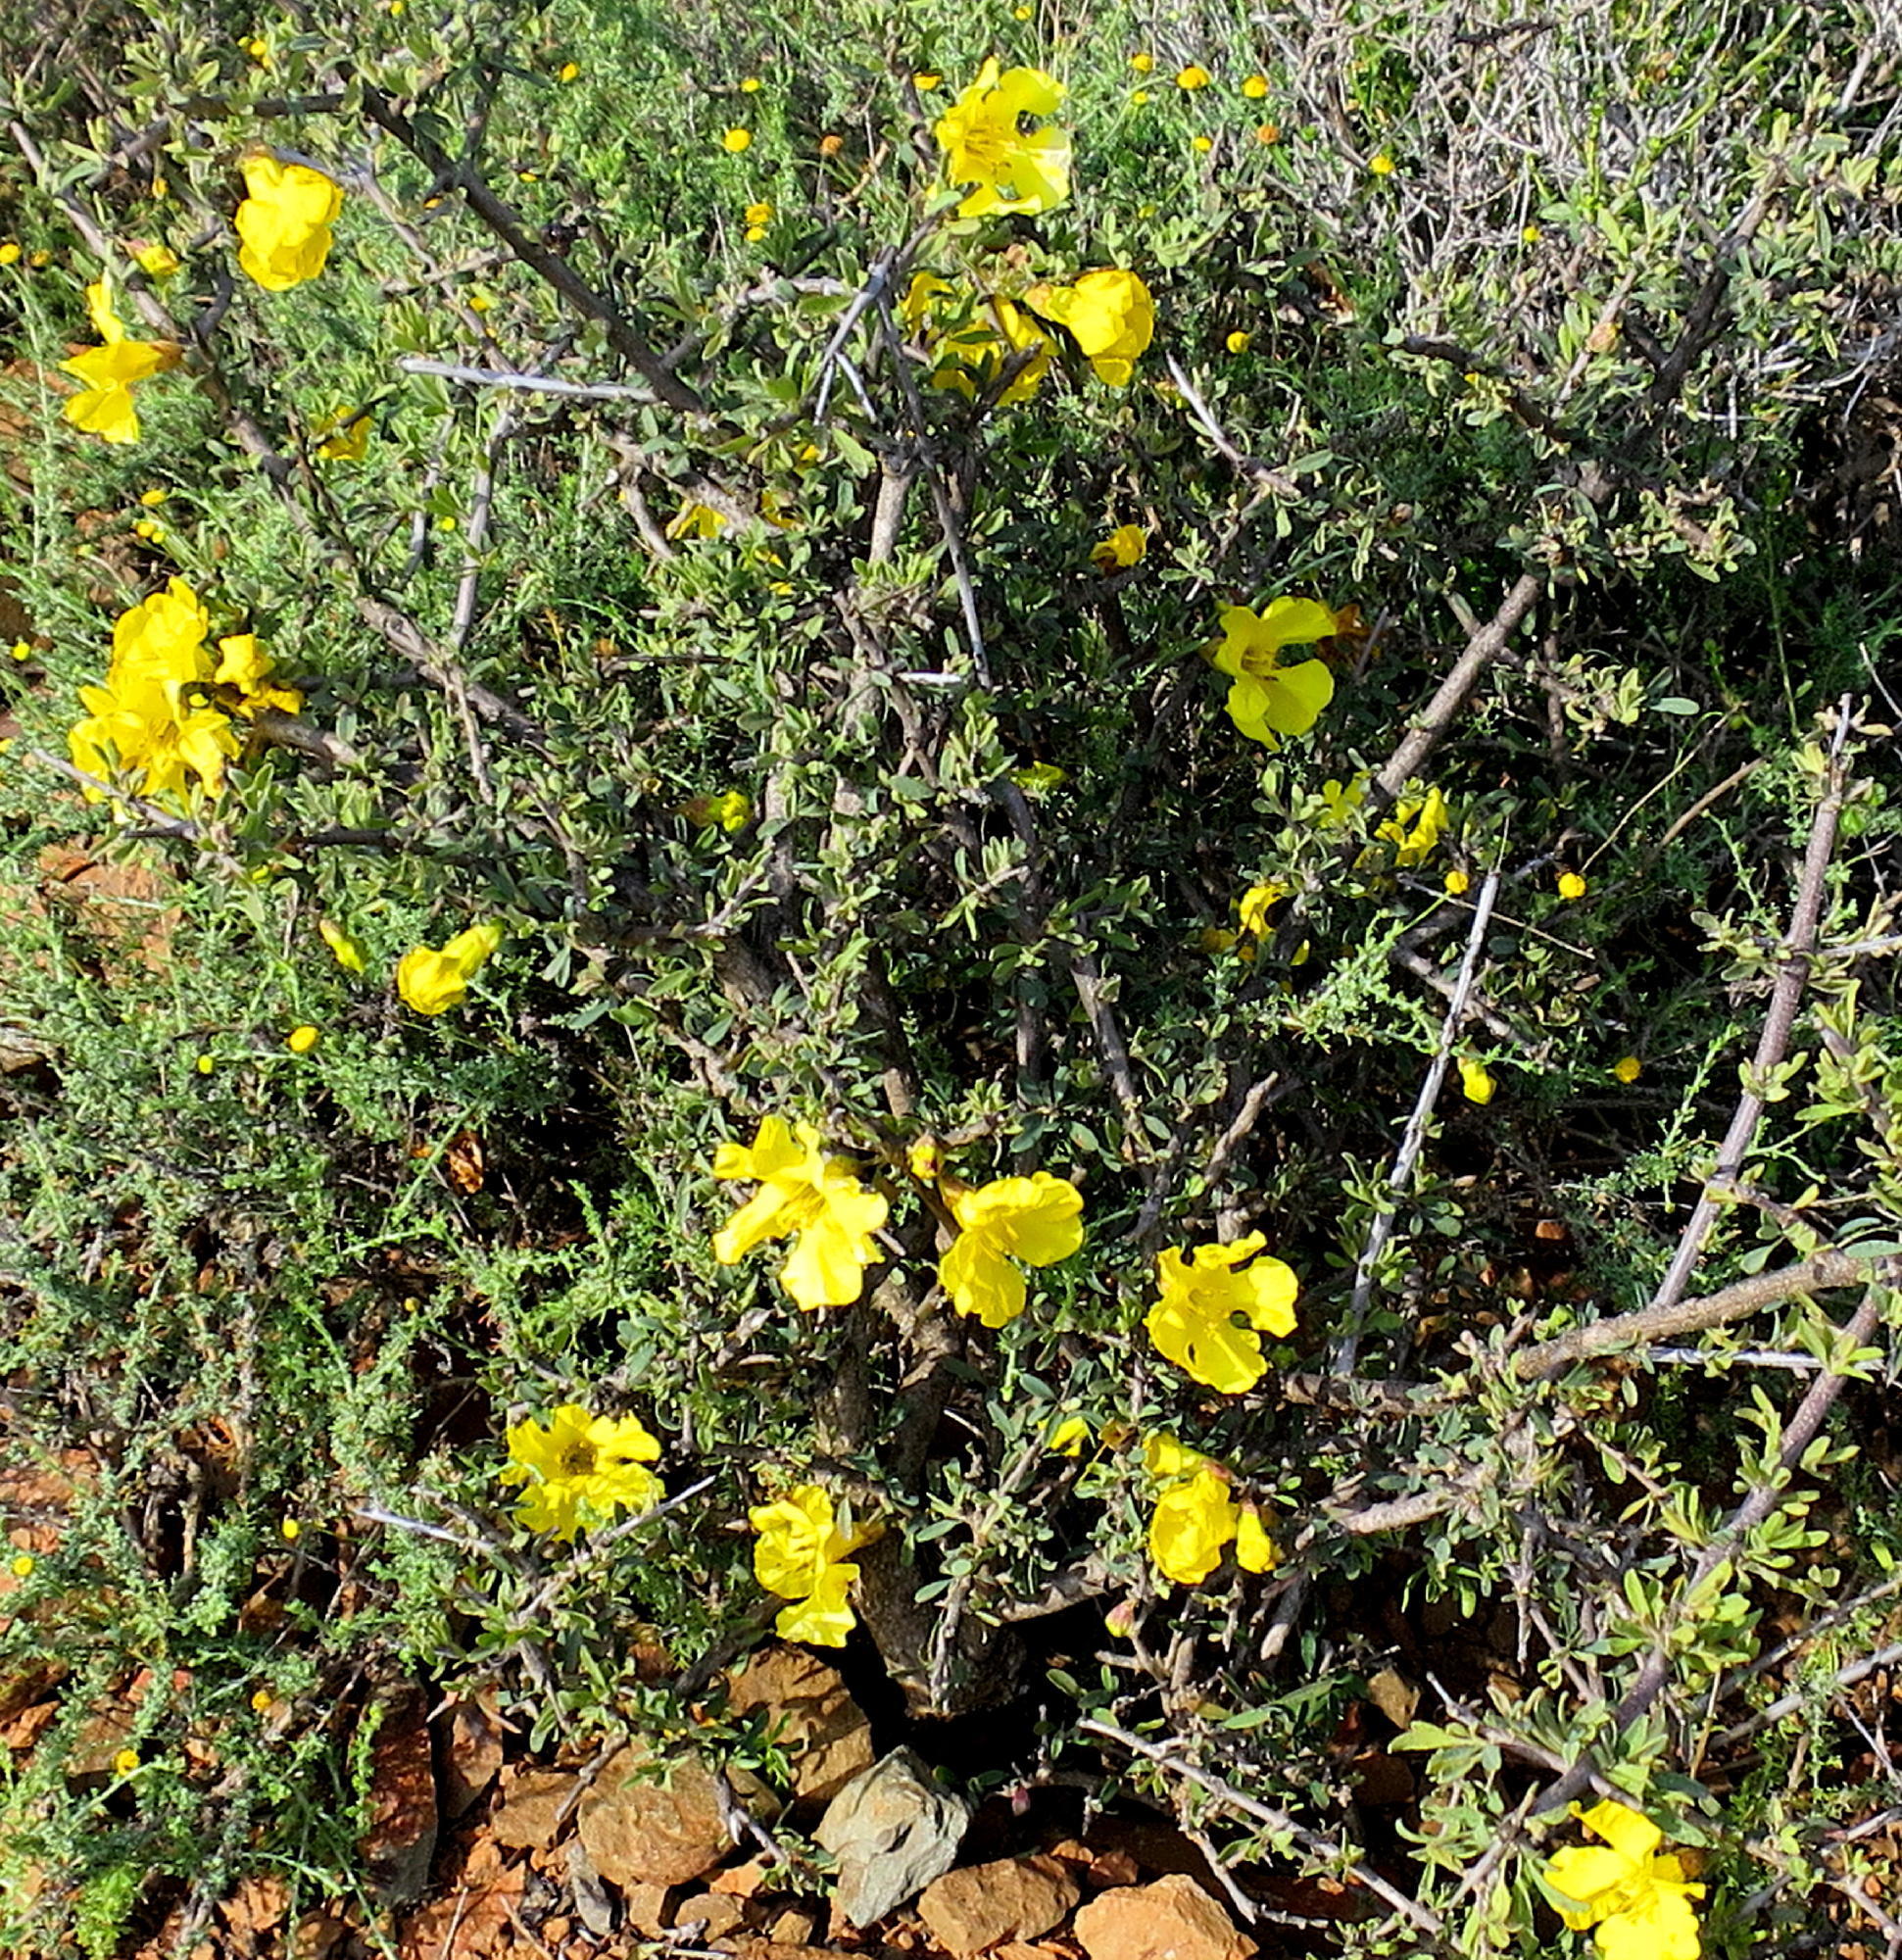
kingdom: Plantae
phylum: Tracheophyta
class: Magnoliopsida
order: Lamiales
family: Bignoniaceae
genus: Rhigozum
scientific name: Rhigozum obovatum
